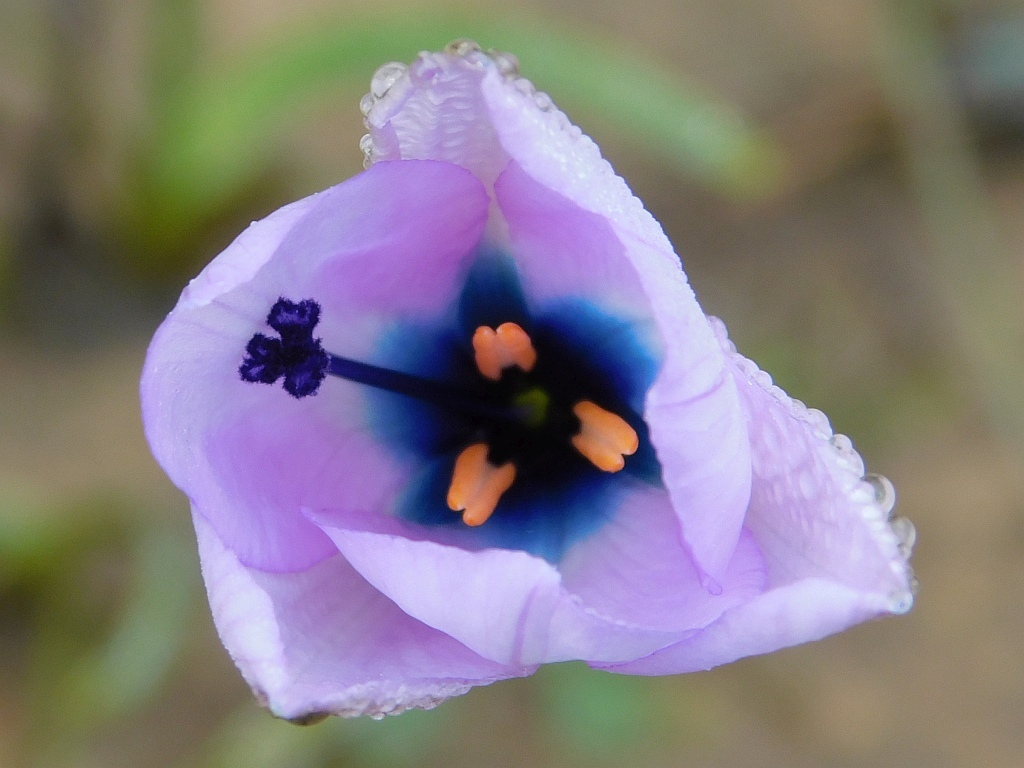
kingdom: Plantae
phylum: Tracheophyta
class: Liliopsida
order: Asparagales
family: Iridaceae
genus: Aristea
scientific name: Aristea cantharophila
